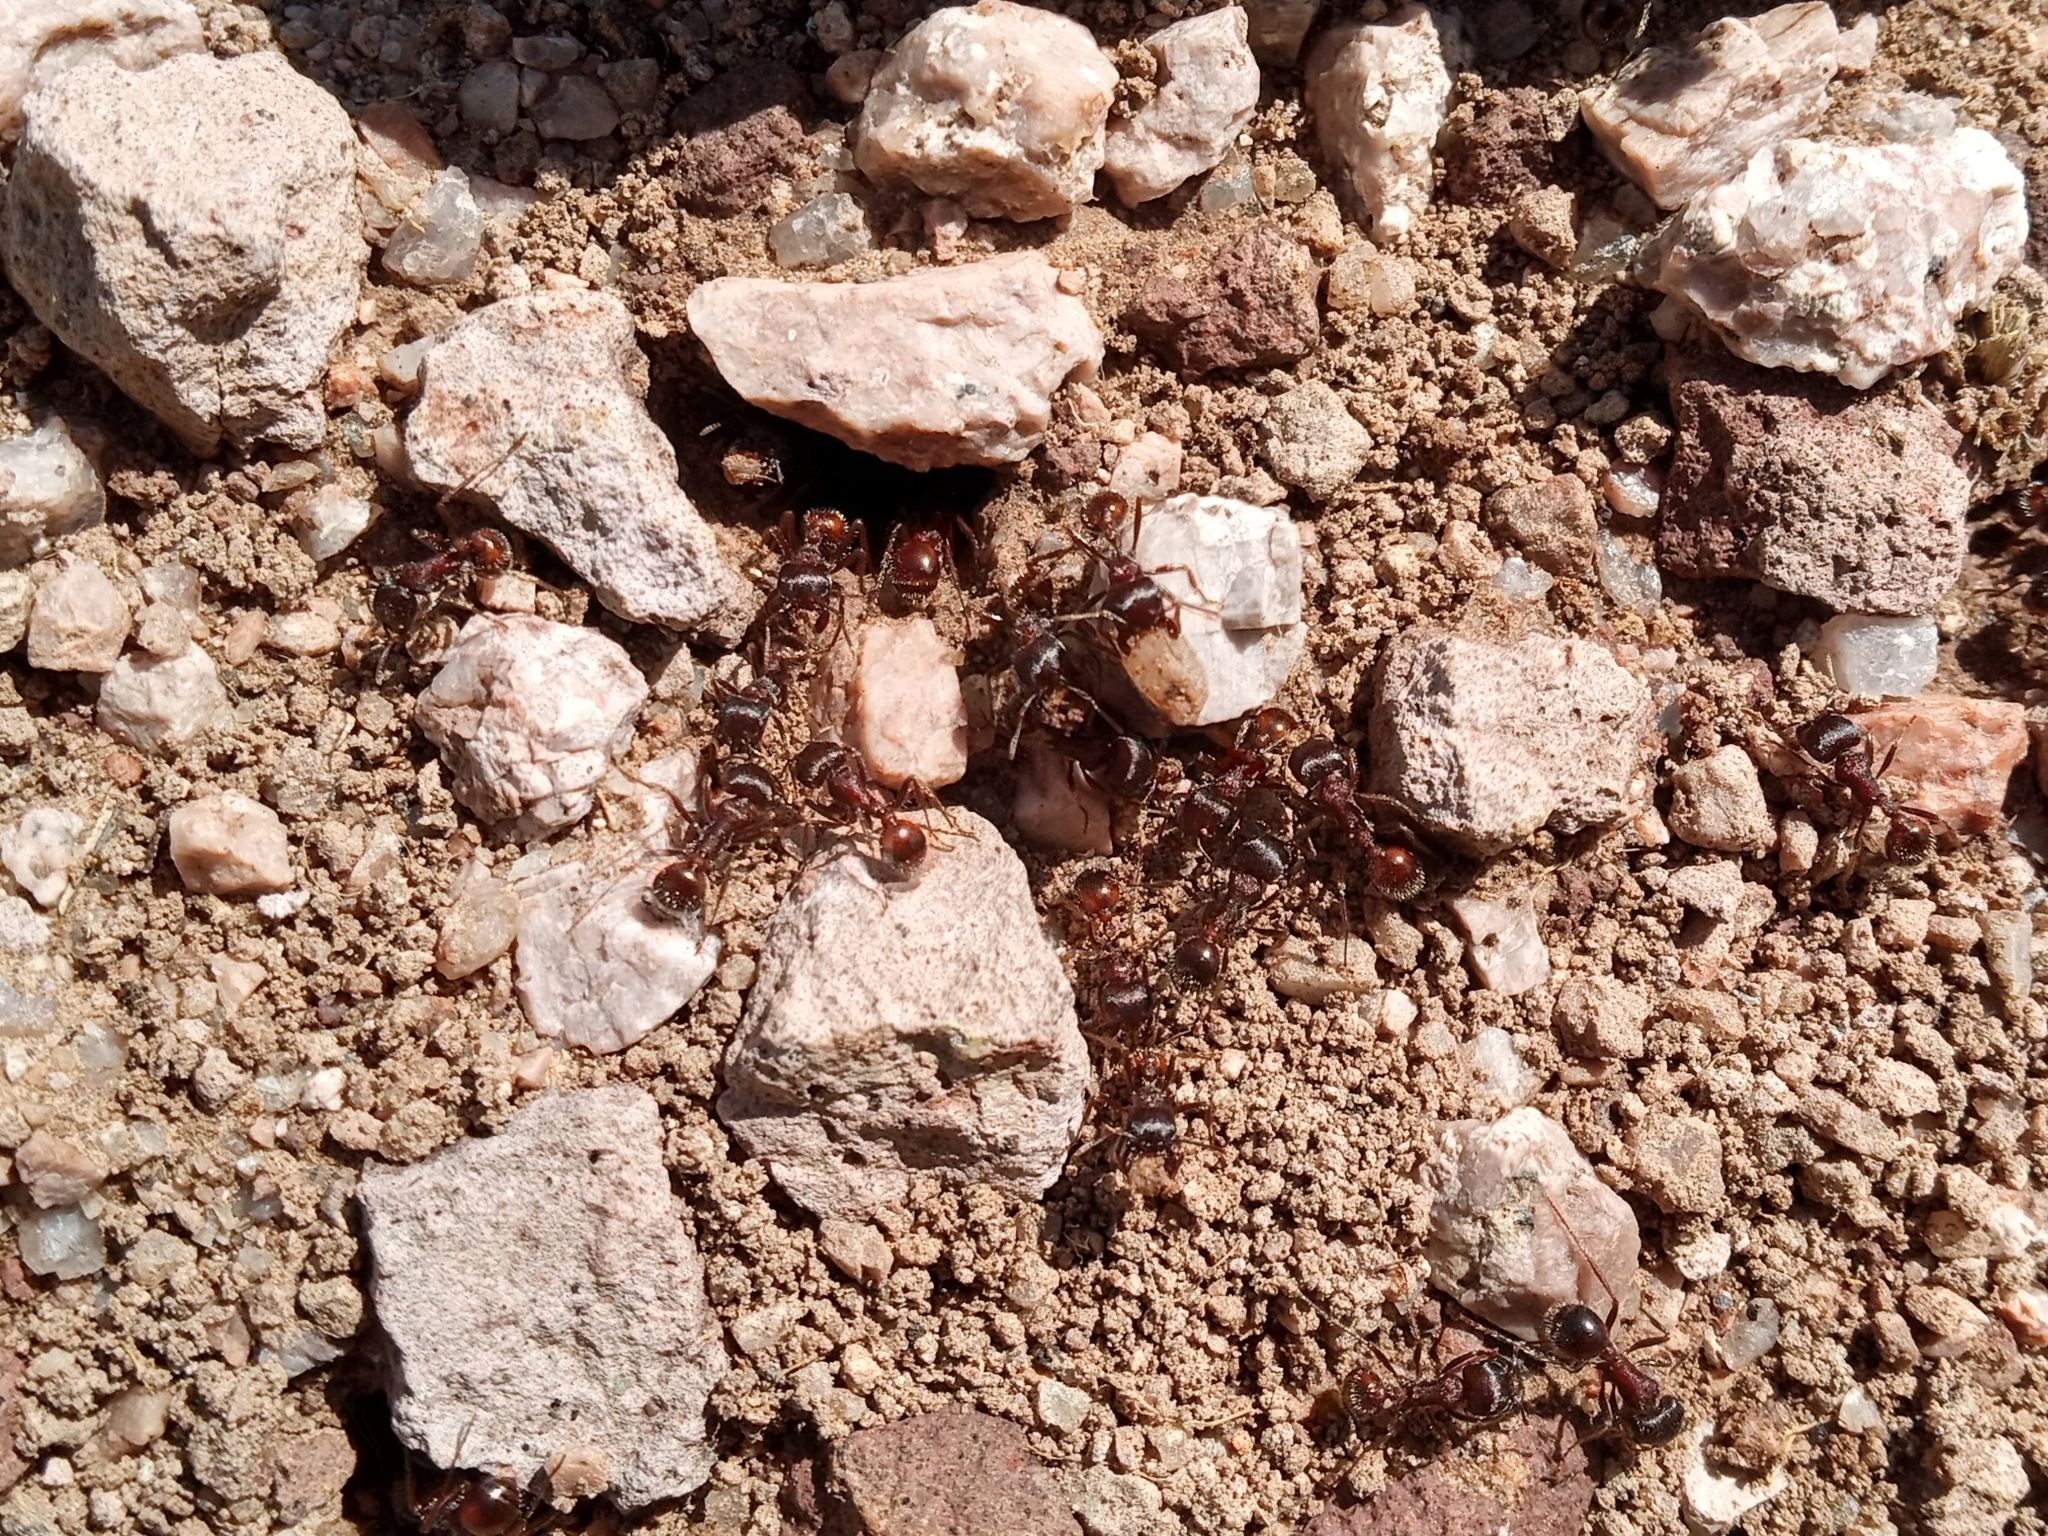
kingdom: Animalia
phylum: Arthropoda
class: Insecta
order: Hymenoptera
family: Formicidae
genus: Pogonomyrmex
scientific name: Pogonomyrmex rugosus
